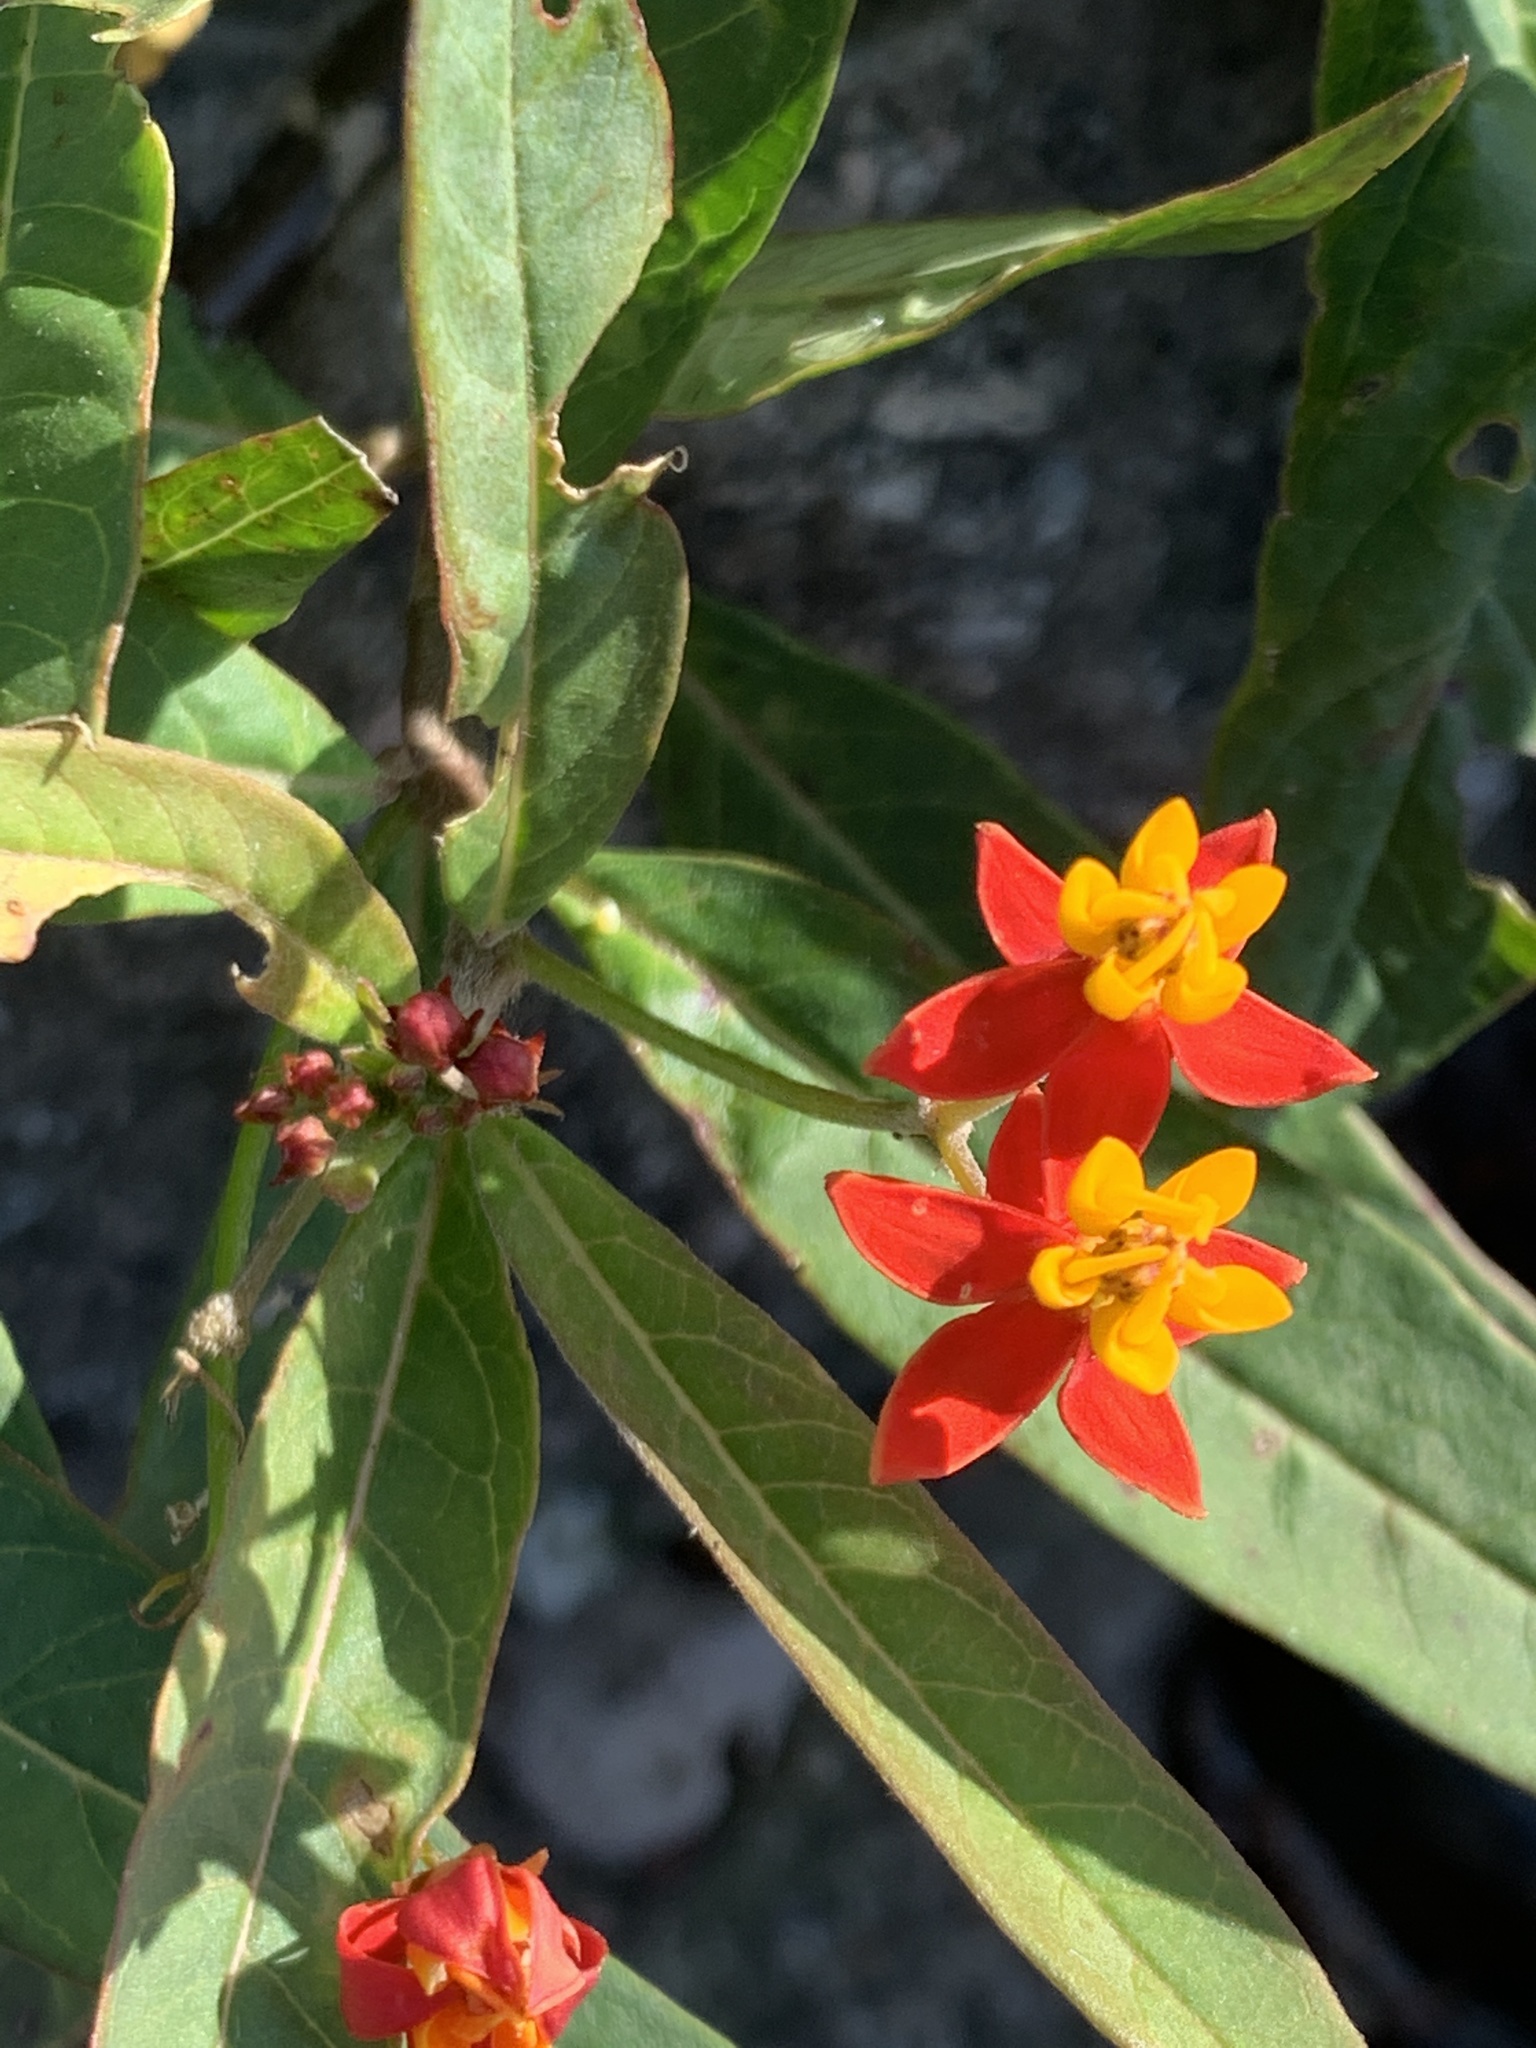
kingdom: Plantae
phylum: Tracheophyta
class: Magnoliopsida
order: Gentianales
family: Apocynaceae
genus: Asclepias
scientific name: Asclepias curassavica
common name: Bloodflower
